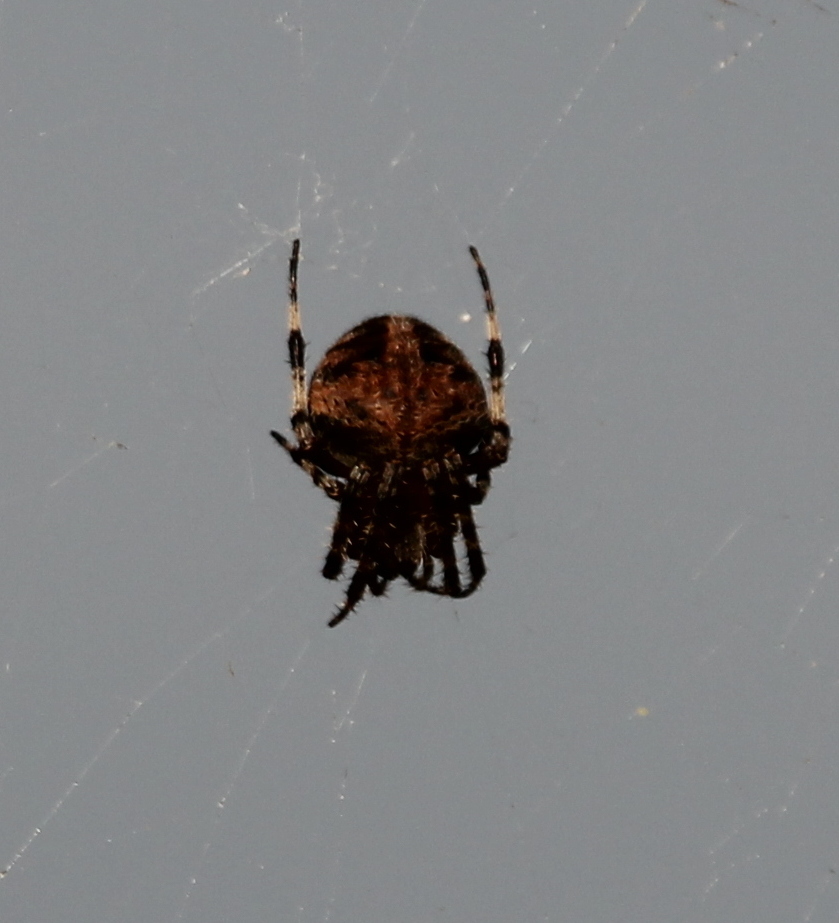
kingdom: Animalia
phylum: Arthropoda
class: Arachnida
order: Araneae
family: Araneidae
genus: Neoscona
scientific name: Neoscona crucifera
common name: Spotted orbweaver
